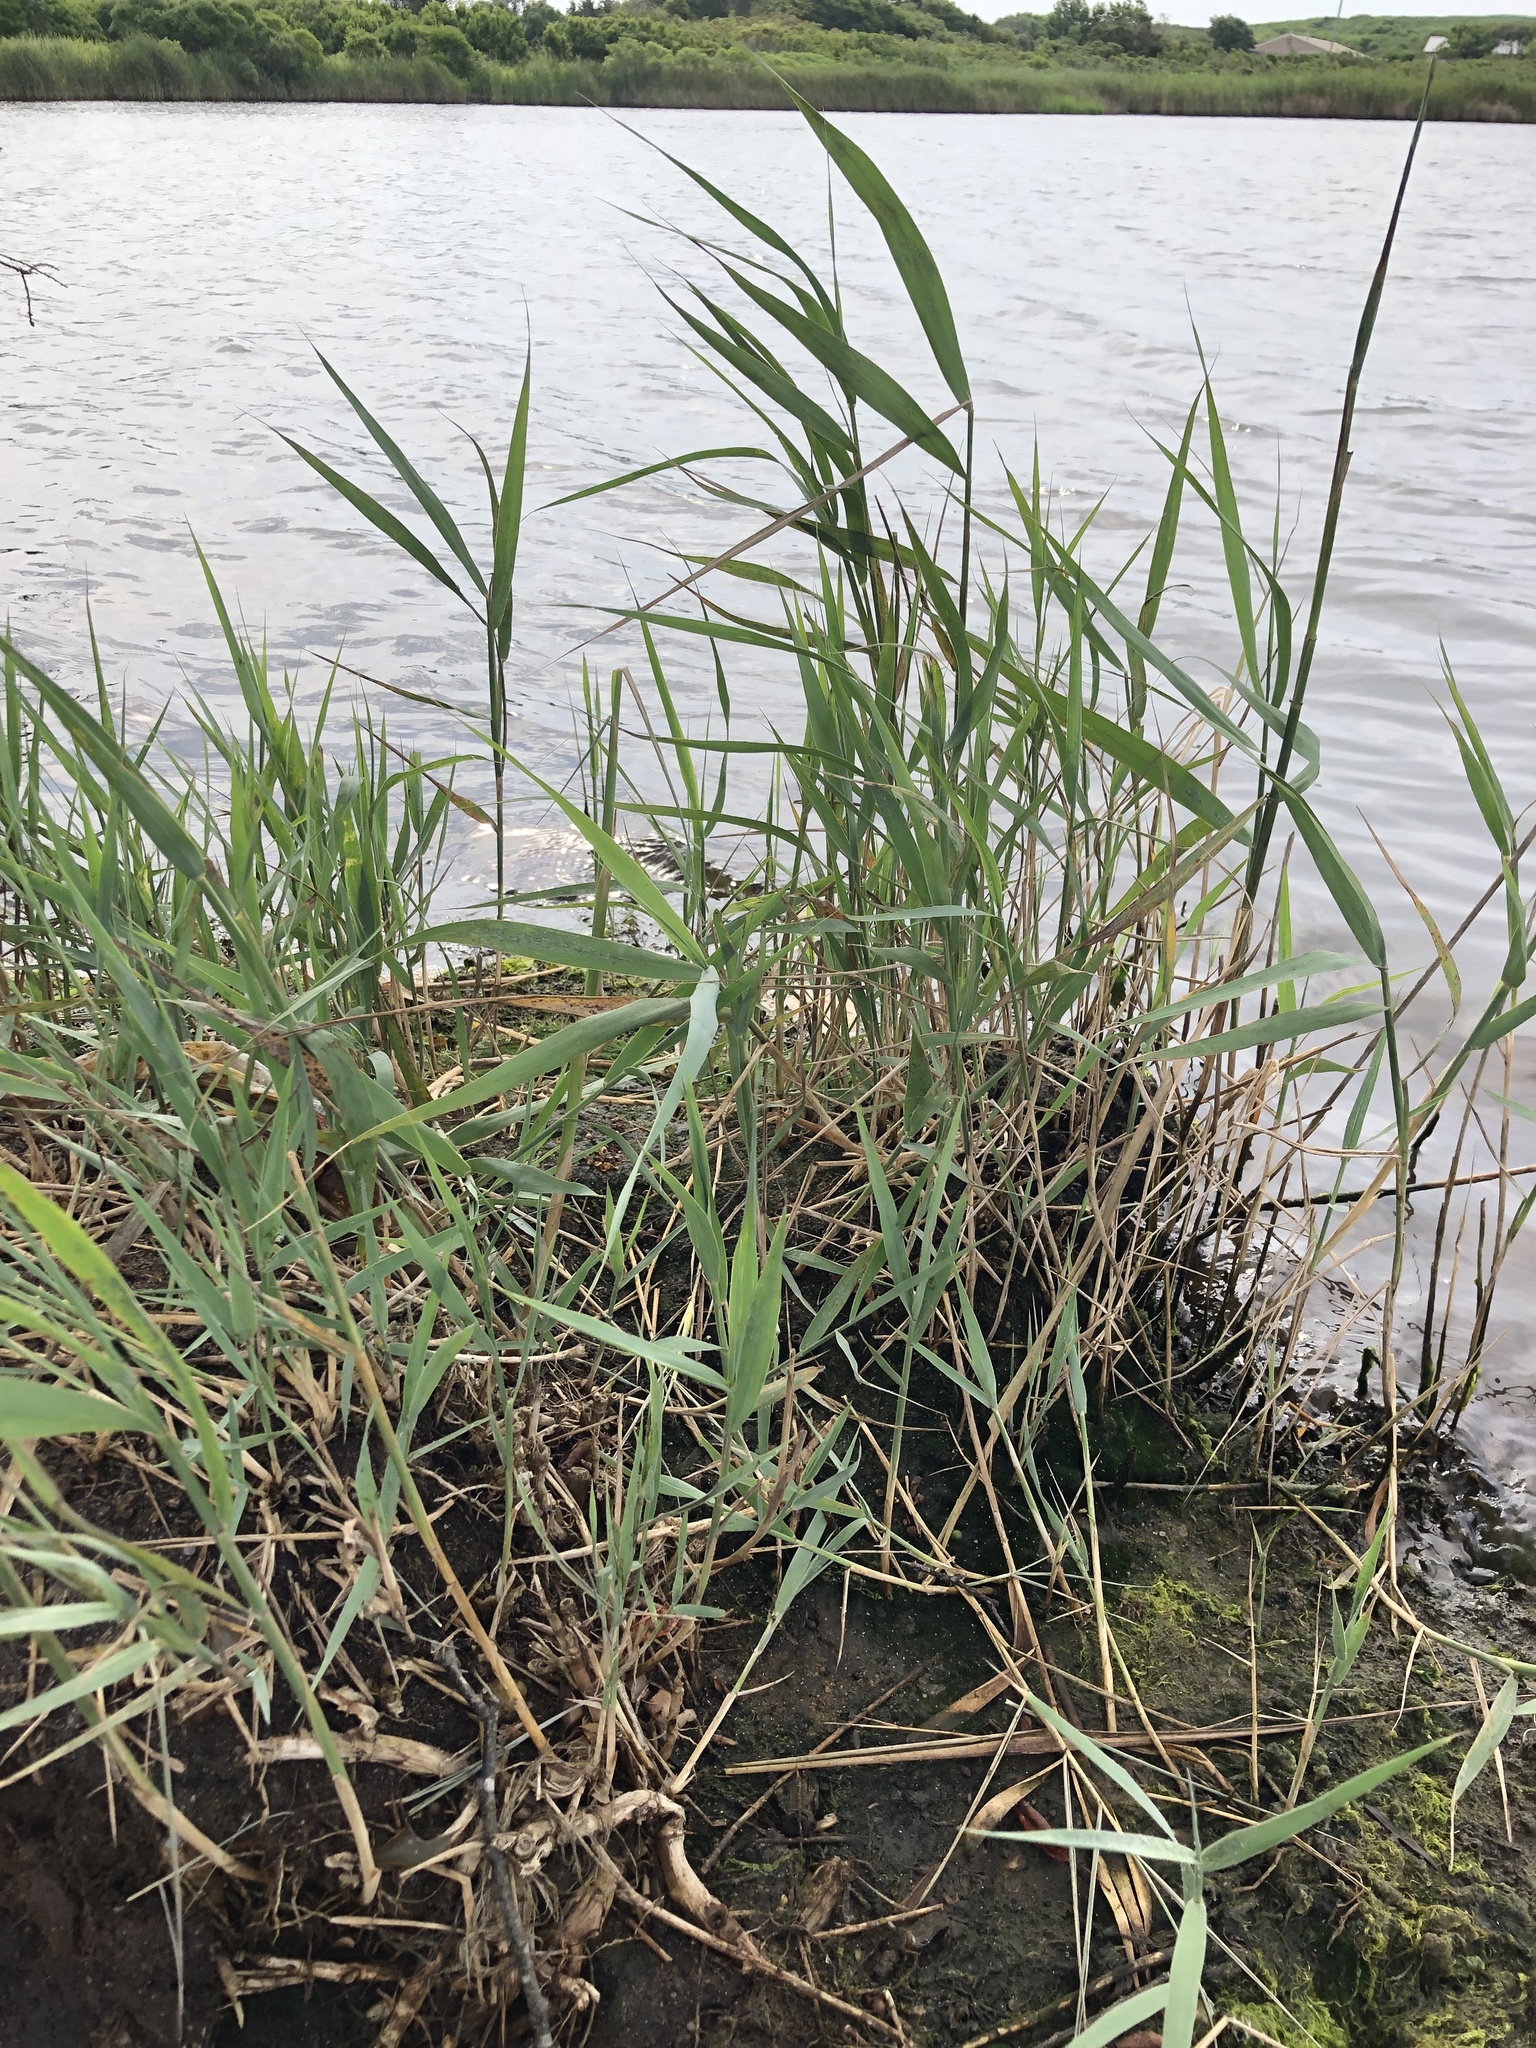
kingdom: Plantae
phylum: Tracheophyta
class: Liliopsida
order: Poales
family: Poaceae
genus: Phragmites
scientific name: Phragmites australis
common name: Common reed
